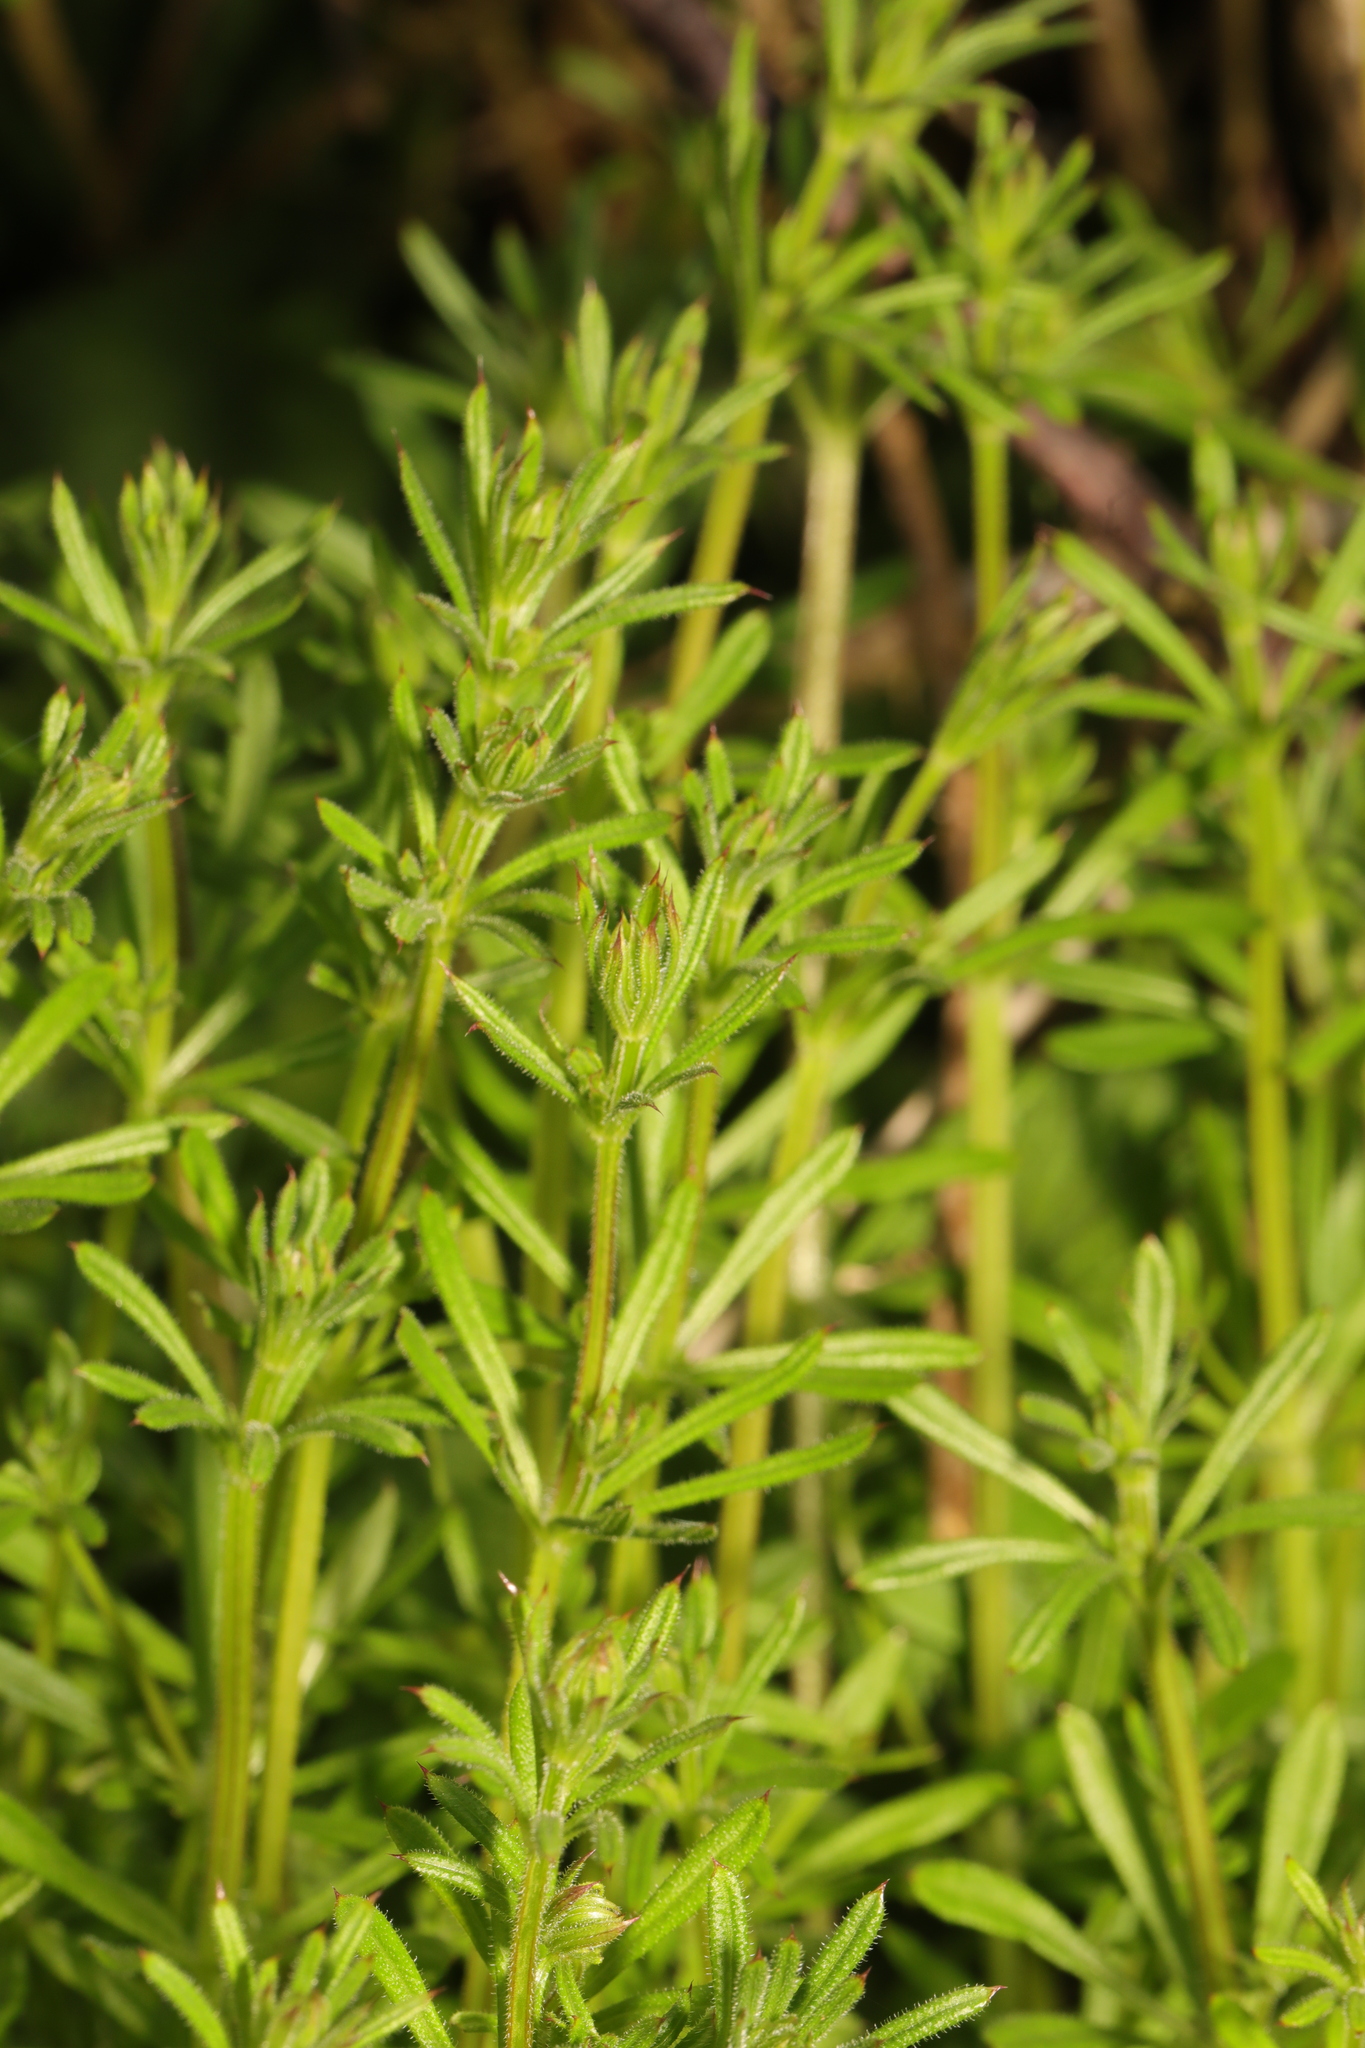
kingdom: Plantae
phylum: Tracheophyta
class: Magnoliopsida
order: Gentianales
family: Rubiaceae
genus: Galium
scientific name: Galium aparine
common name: Cleavers
